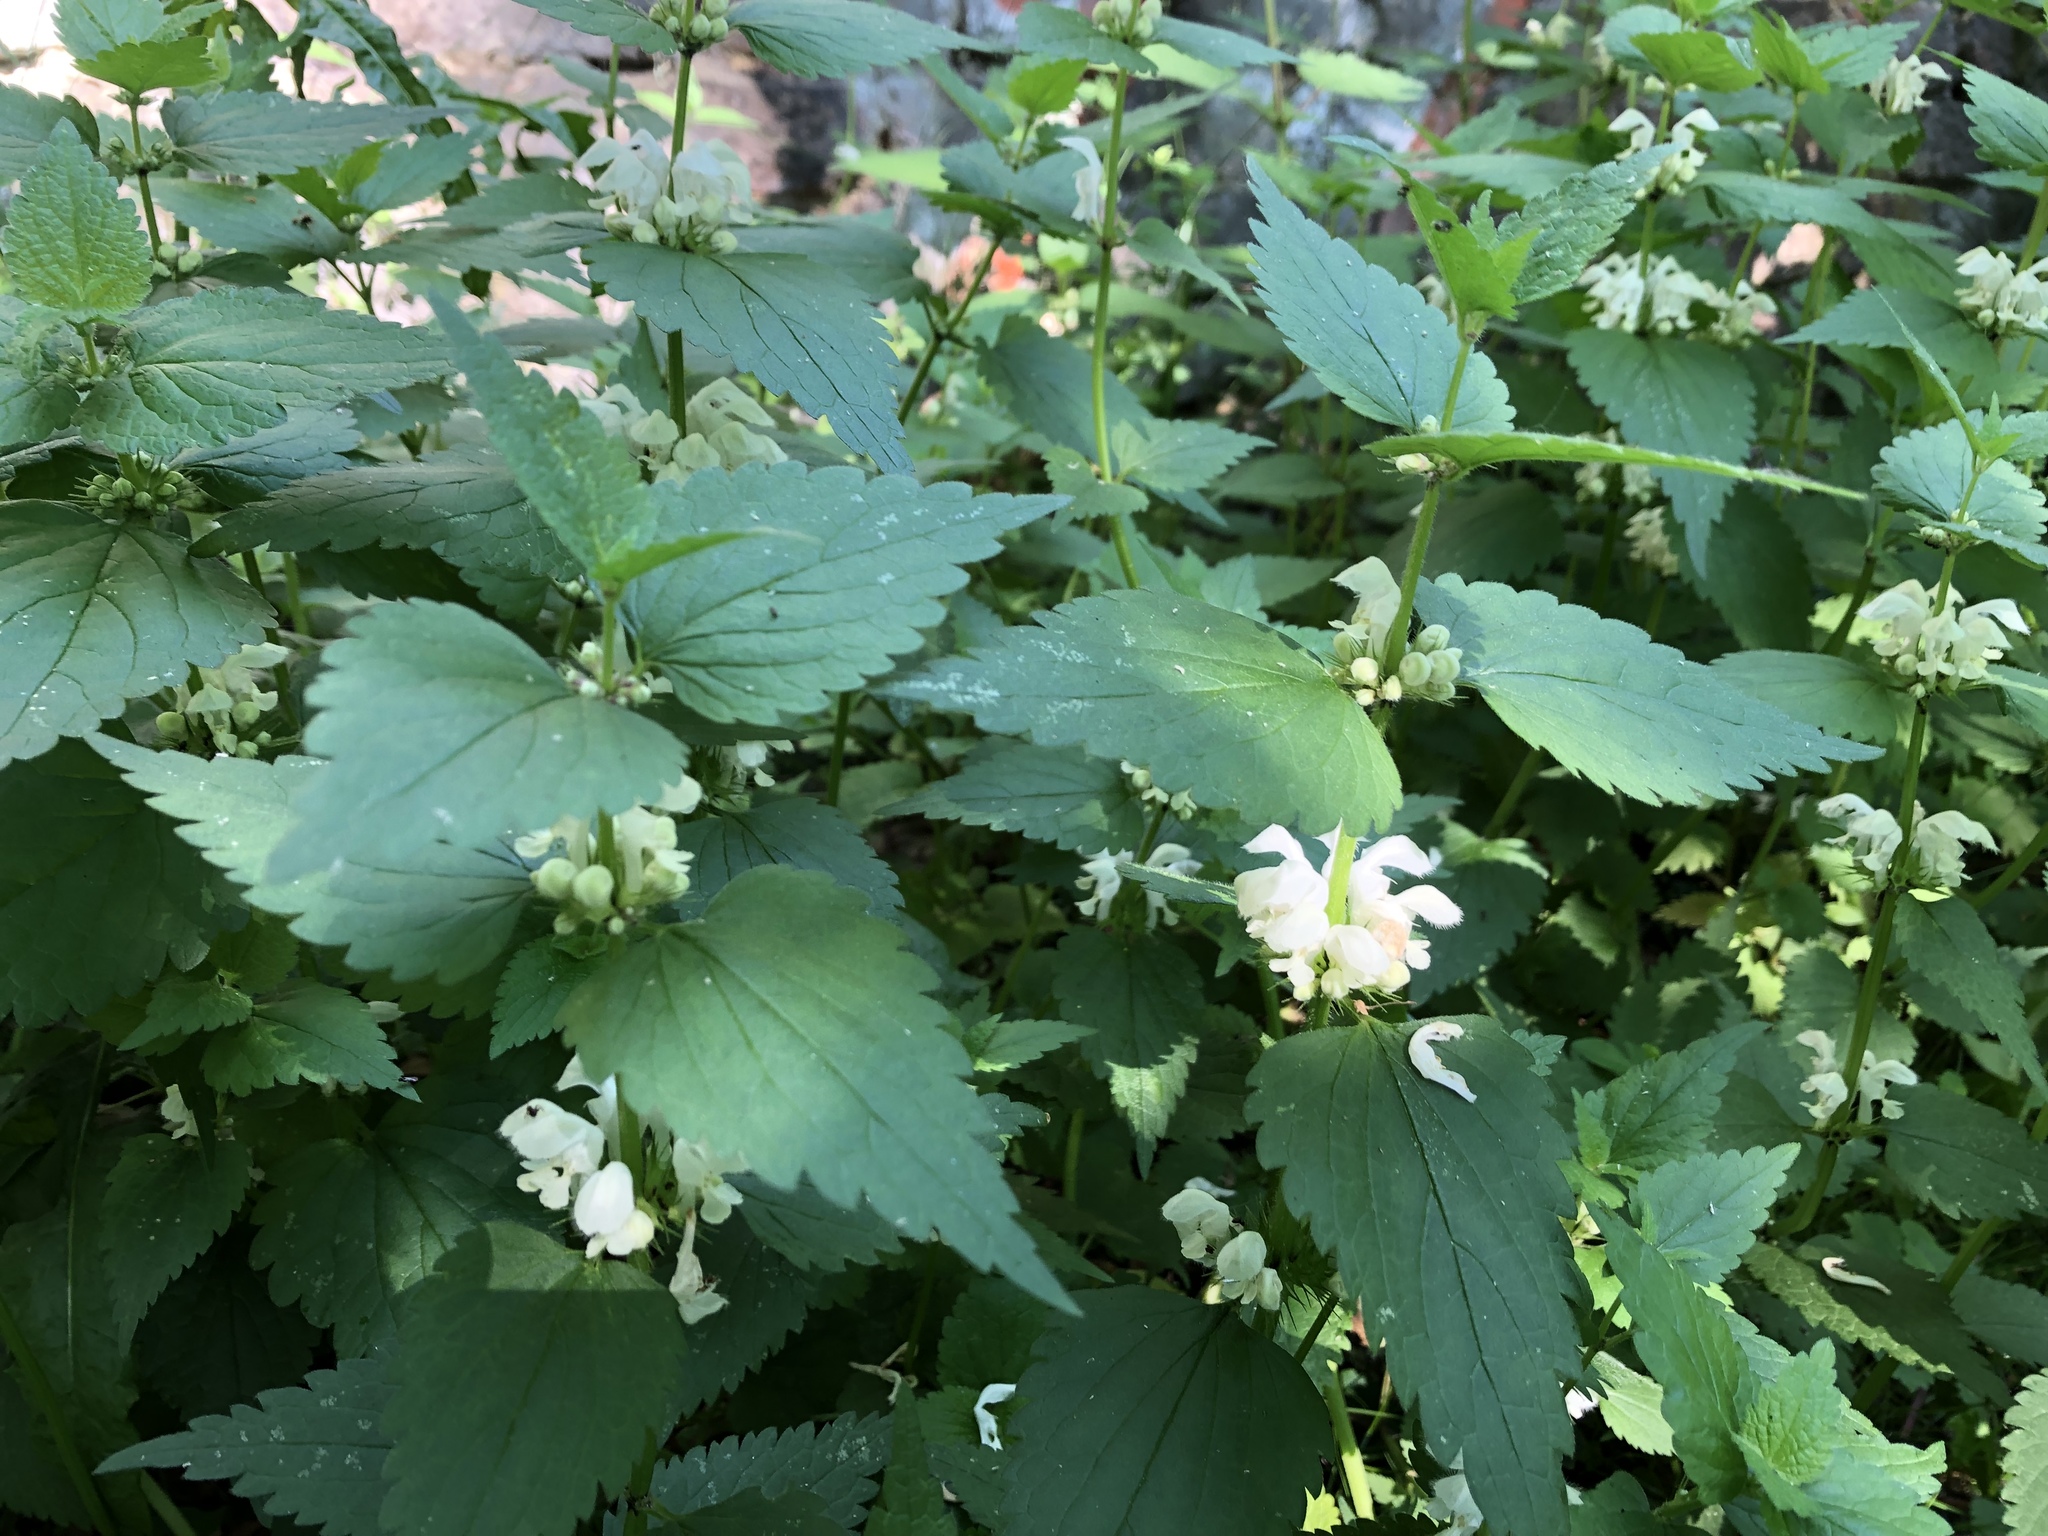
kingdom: Plantae
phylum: Tracheophyta
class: Magnoliopsida
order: Lamiales
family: Lamiaceae
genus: Lamium
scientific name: Lamium album
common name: White dead-nettle
